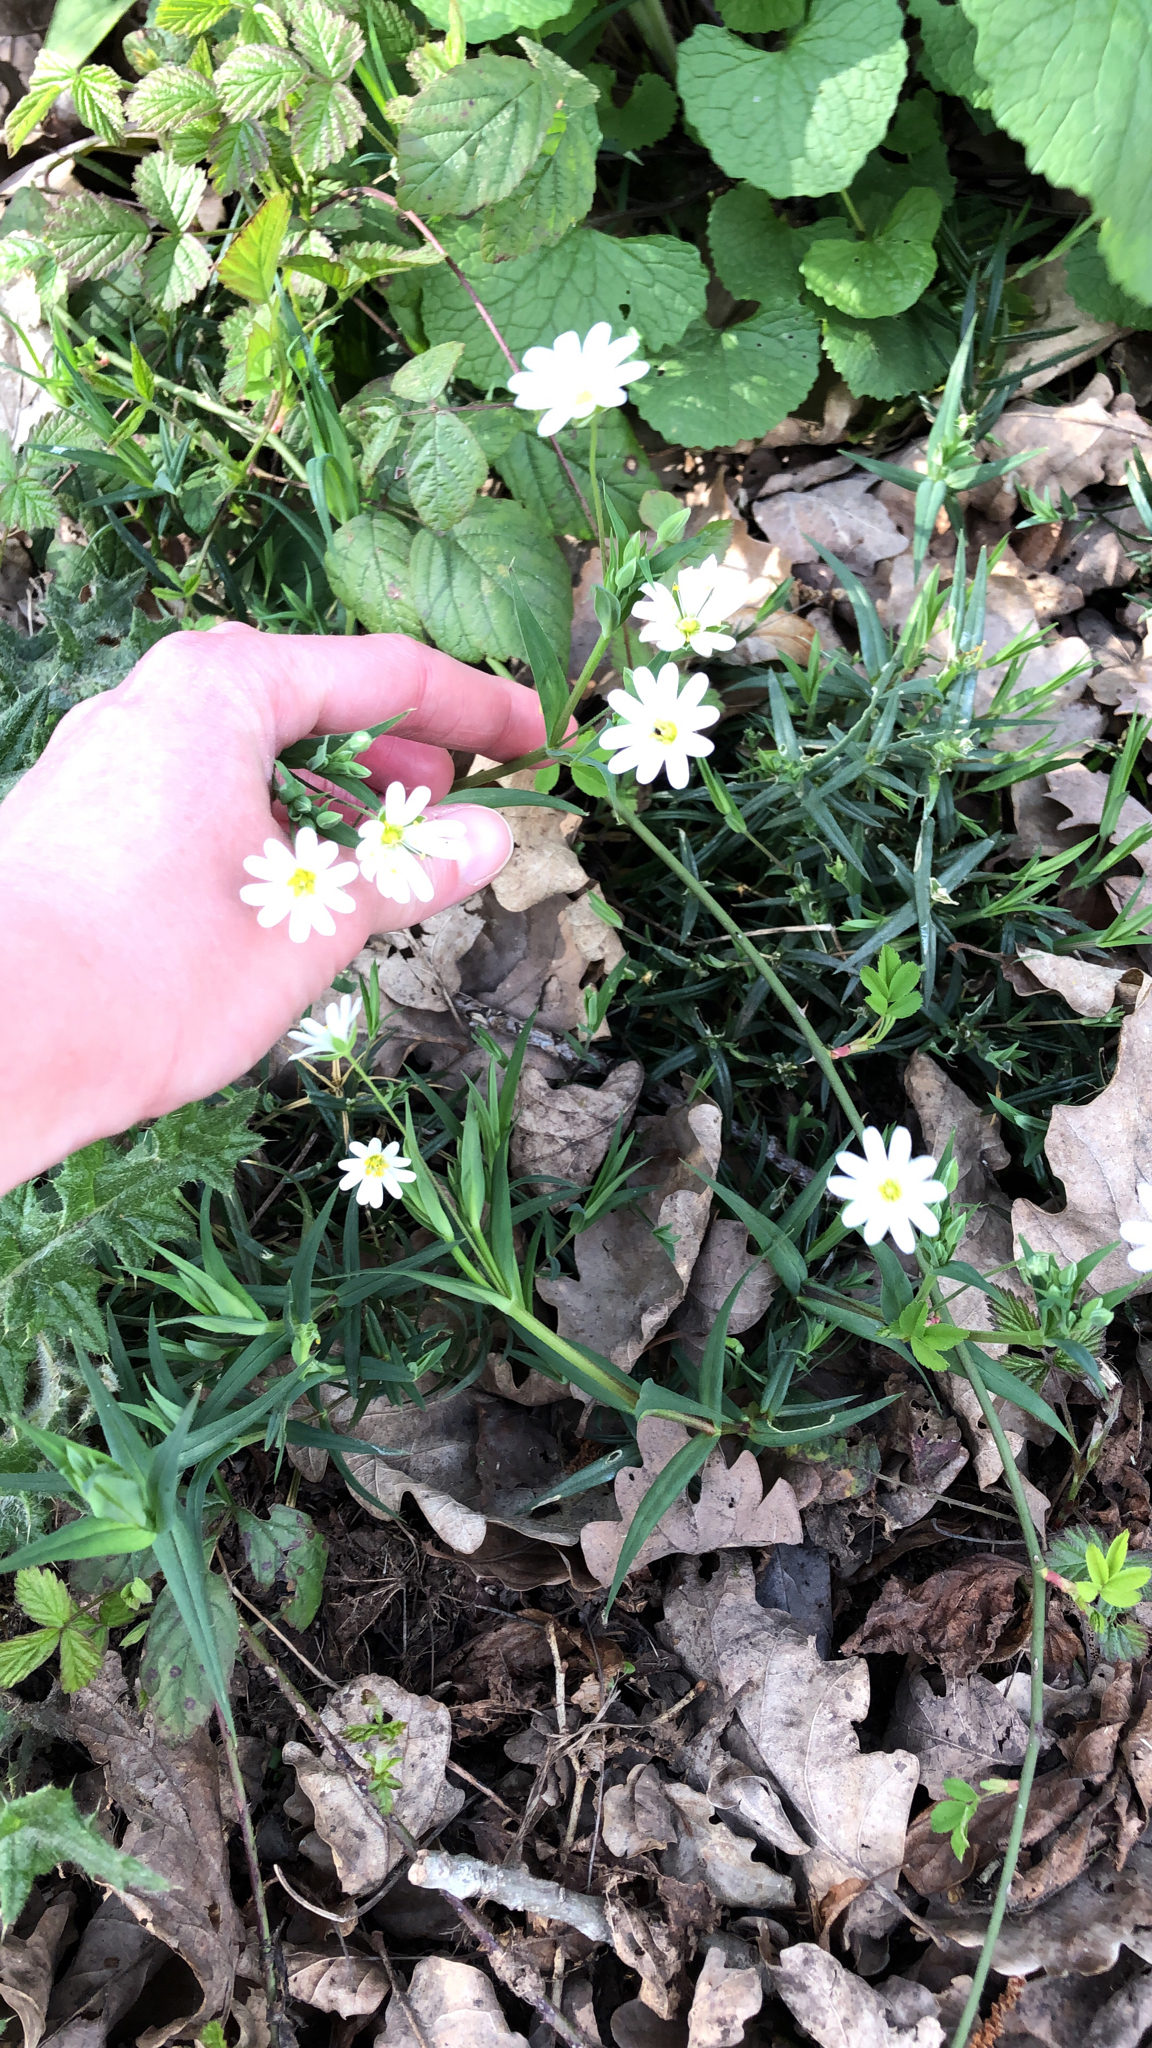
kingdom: Plantae
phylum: Tracheophyta
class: Magnoliopsida
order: Caryophyllales
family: Caryophyllaceae
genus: Rabelera
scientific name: Rabelera holostea
